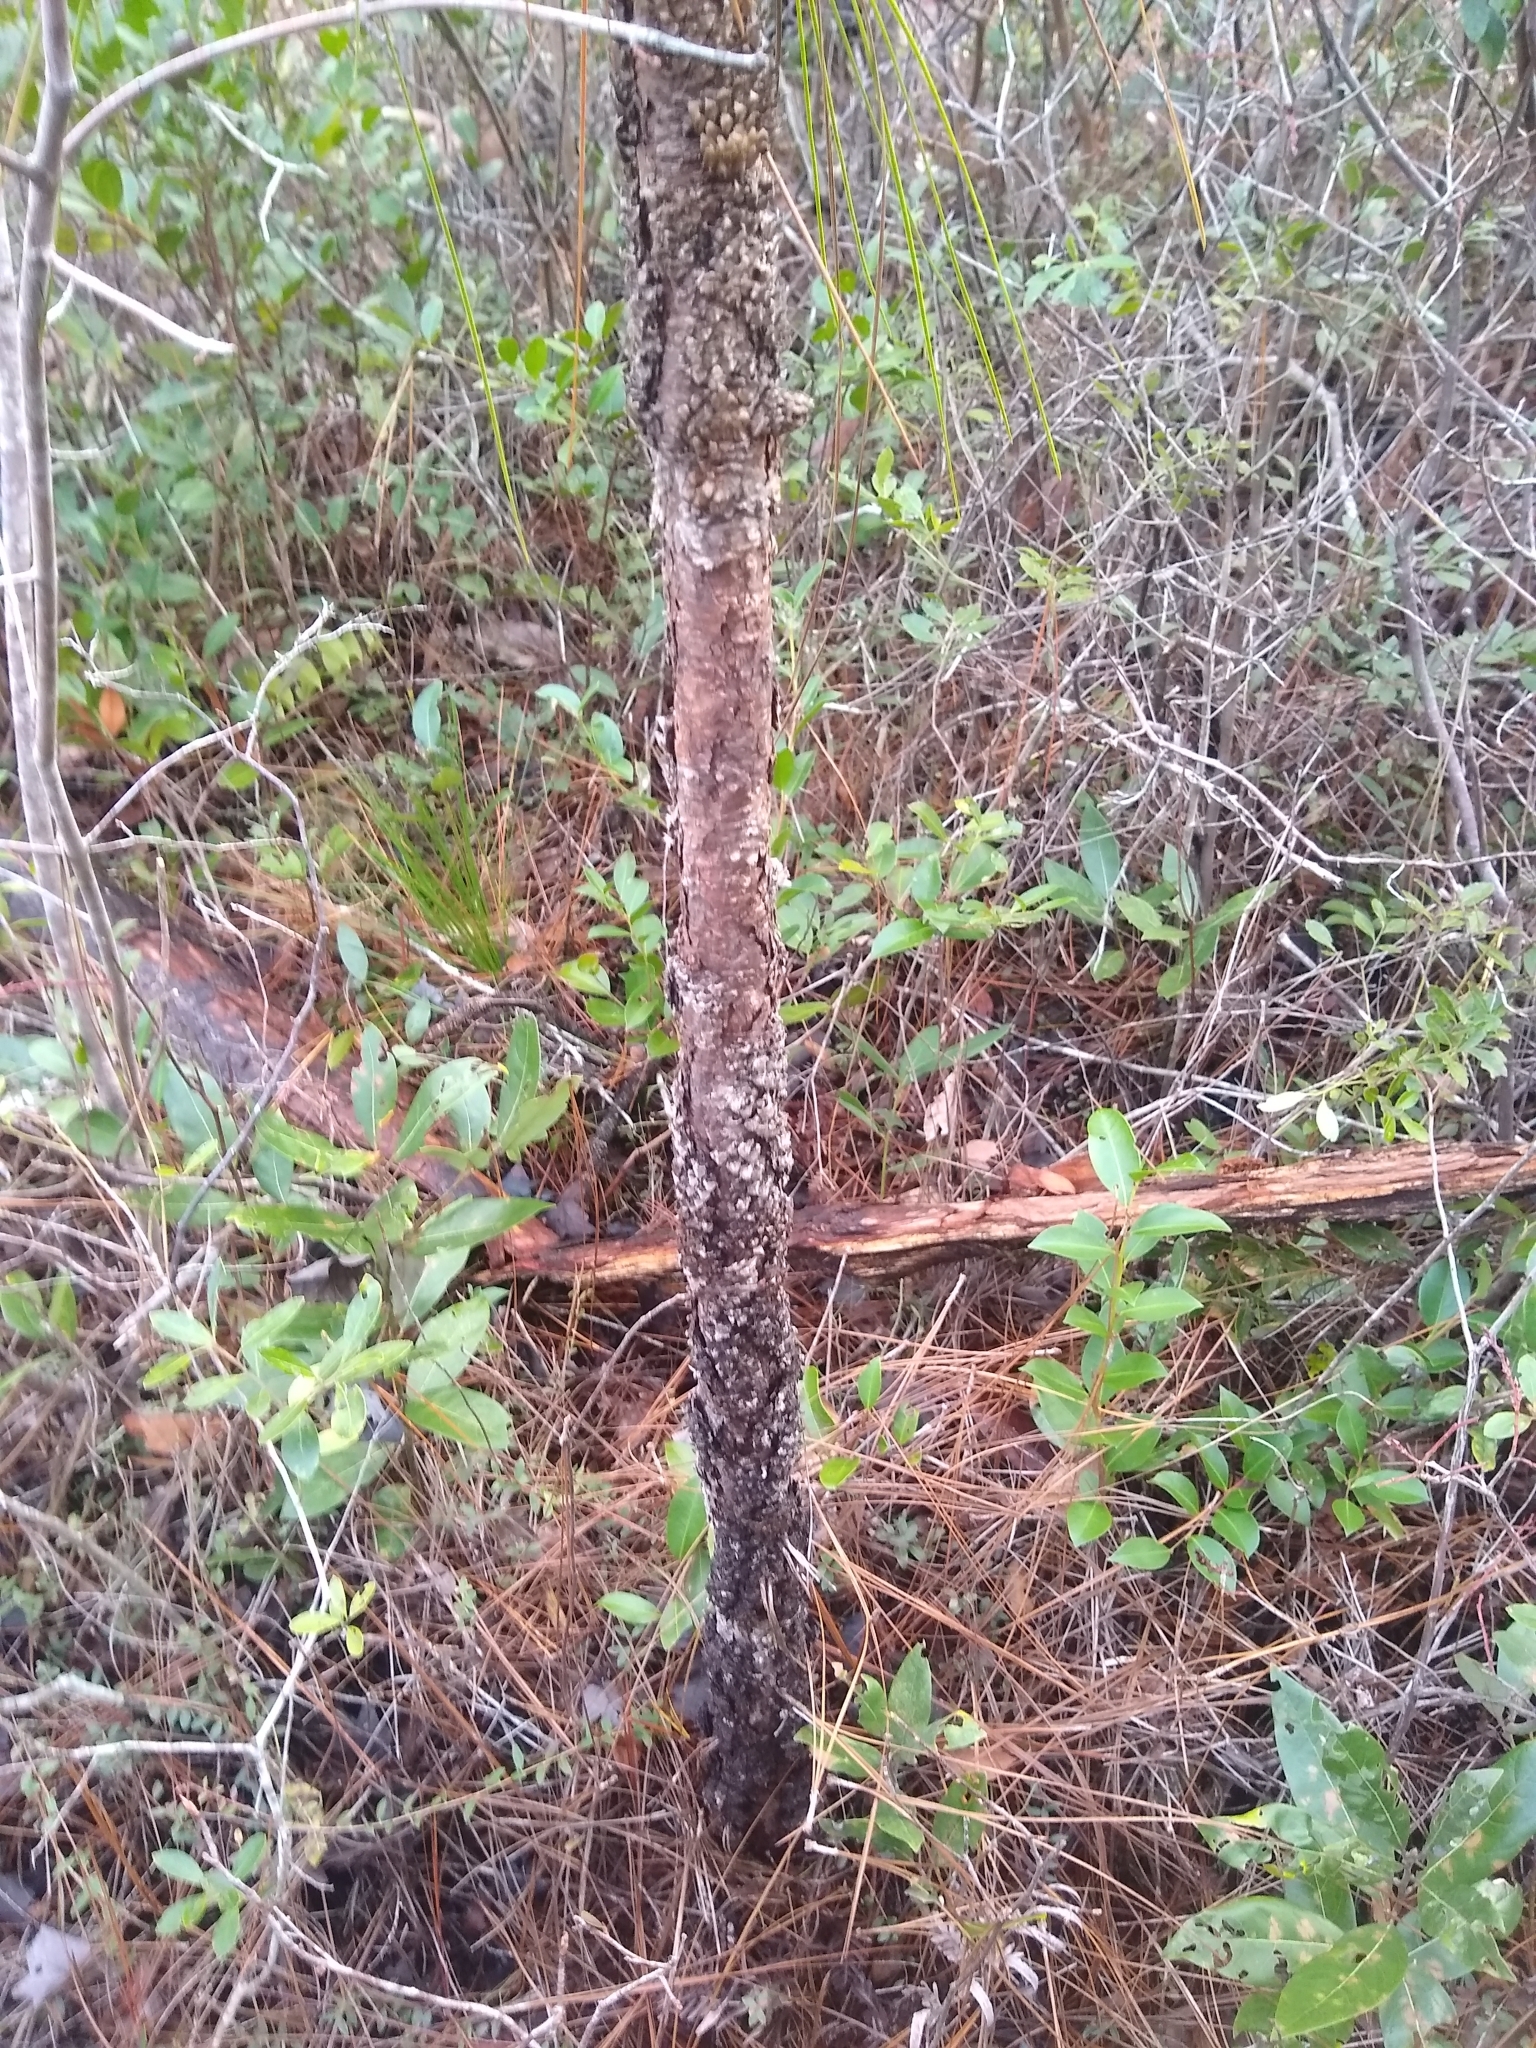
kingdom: Plantae
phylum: Tracheophyta
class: Pinopsida
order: Pinales
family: Pinaceae
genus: Pinus
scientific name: Pinus palustris
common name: Longleaf pine
